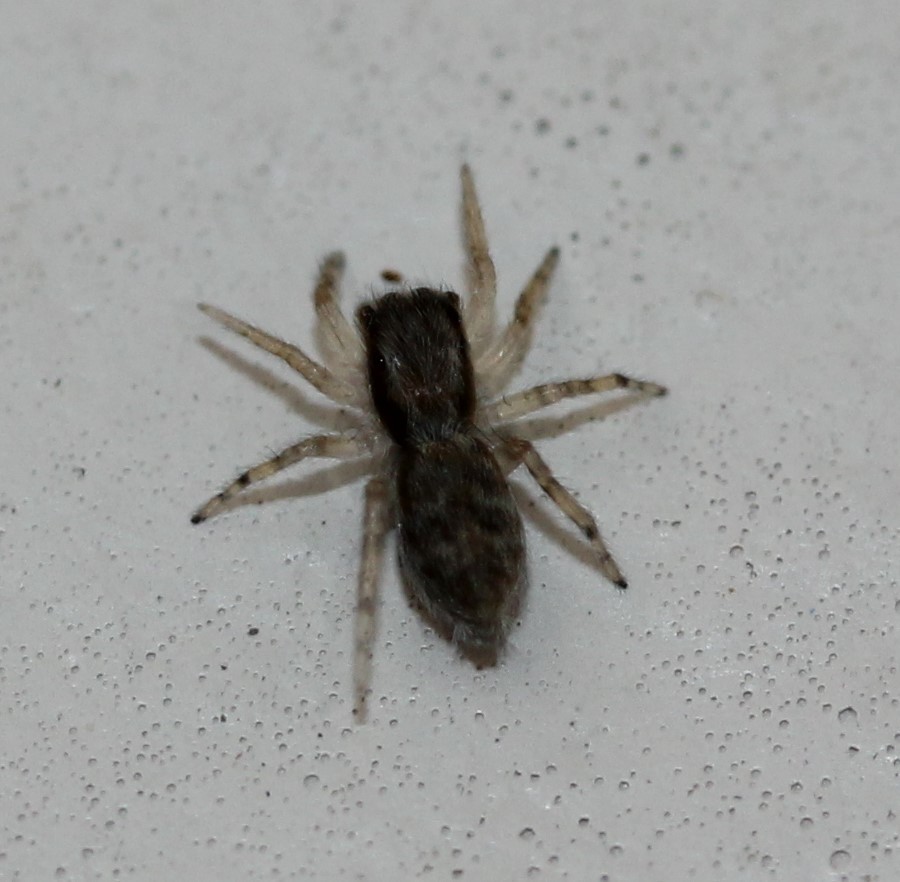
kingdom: Animalia
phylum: Arthropoda
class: Arachnida
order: Araneae
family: Salticidae
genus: Menemerus
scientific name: Menemerus bivittatus
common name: Gray wall jumper
